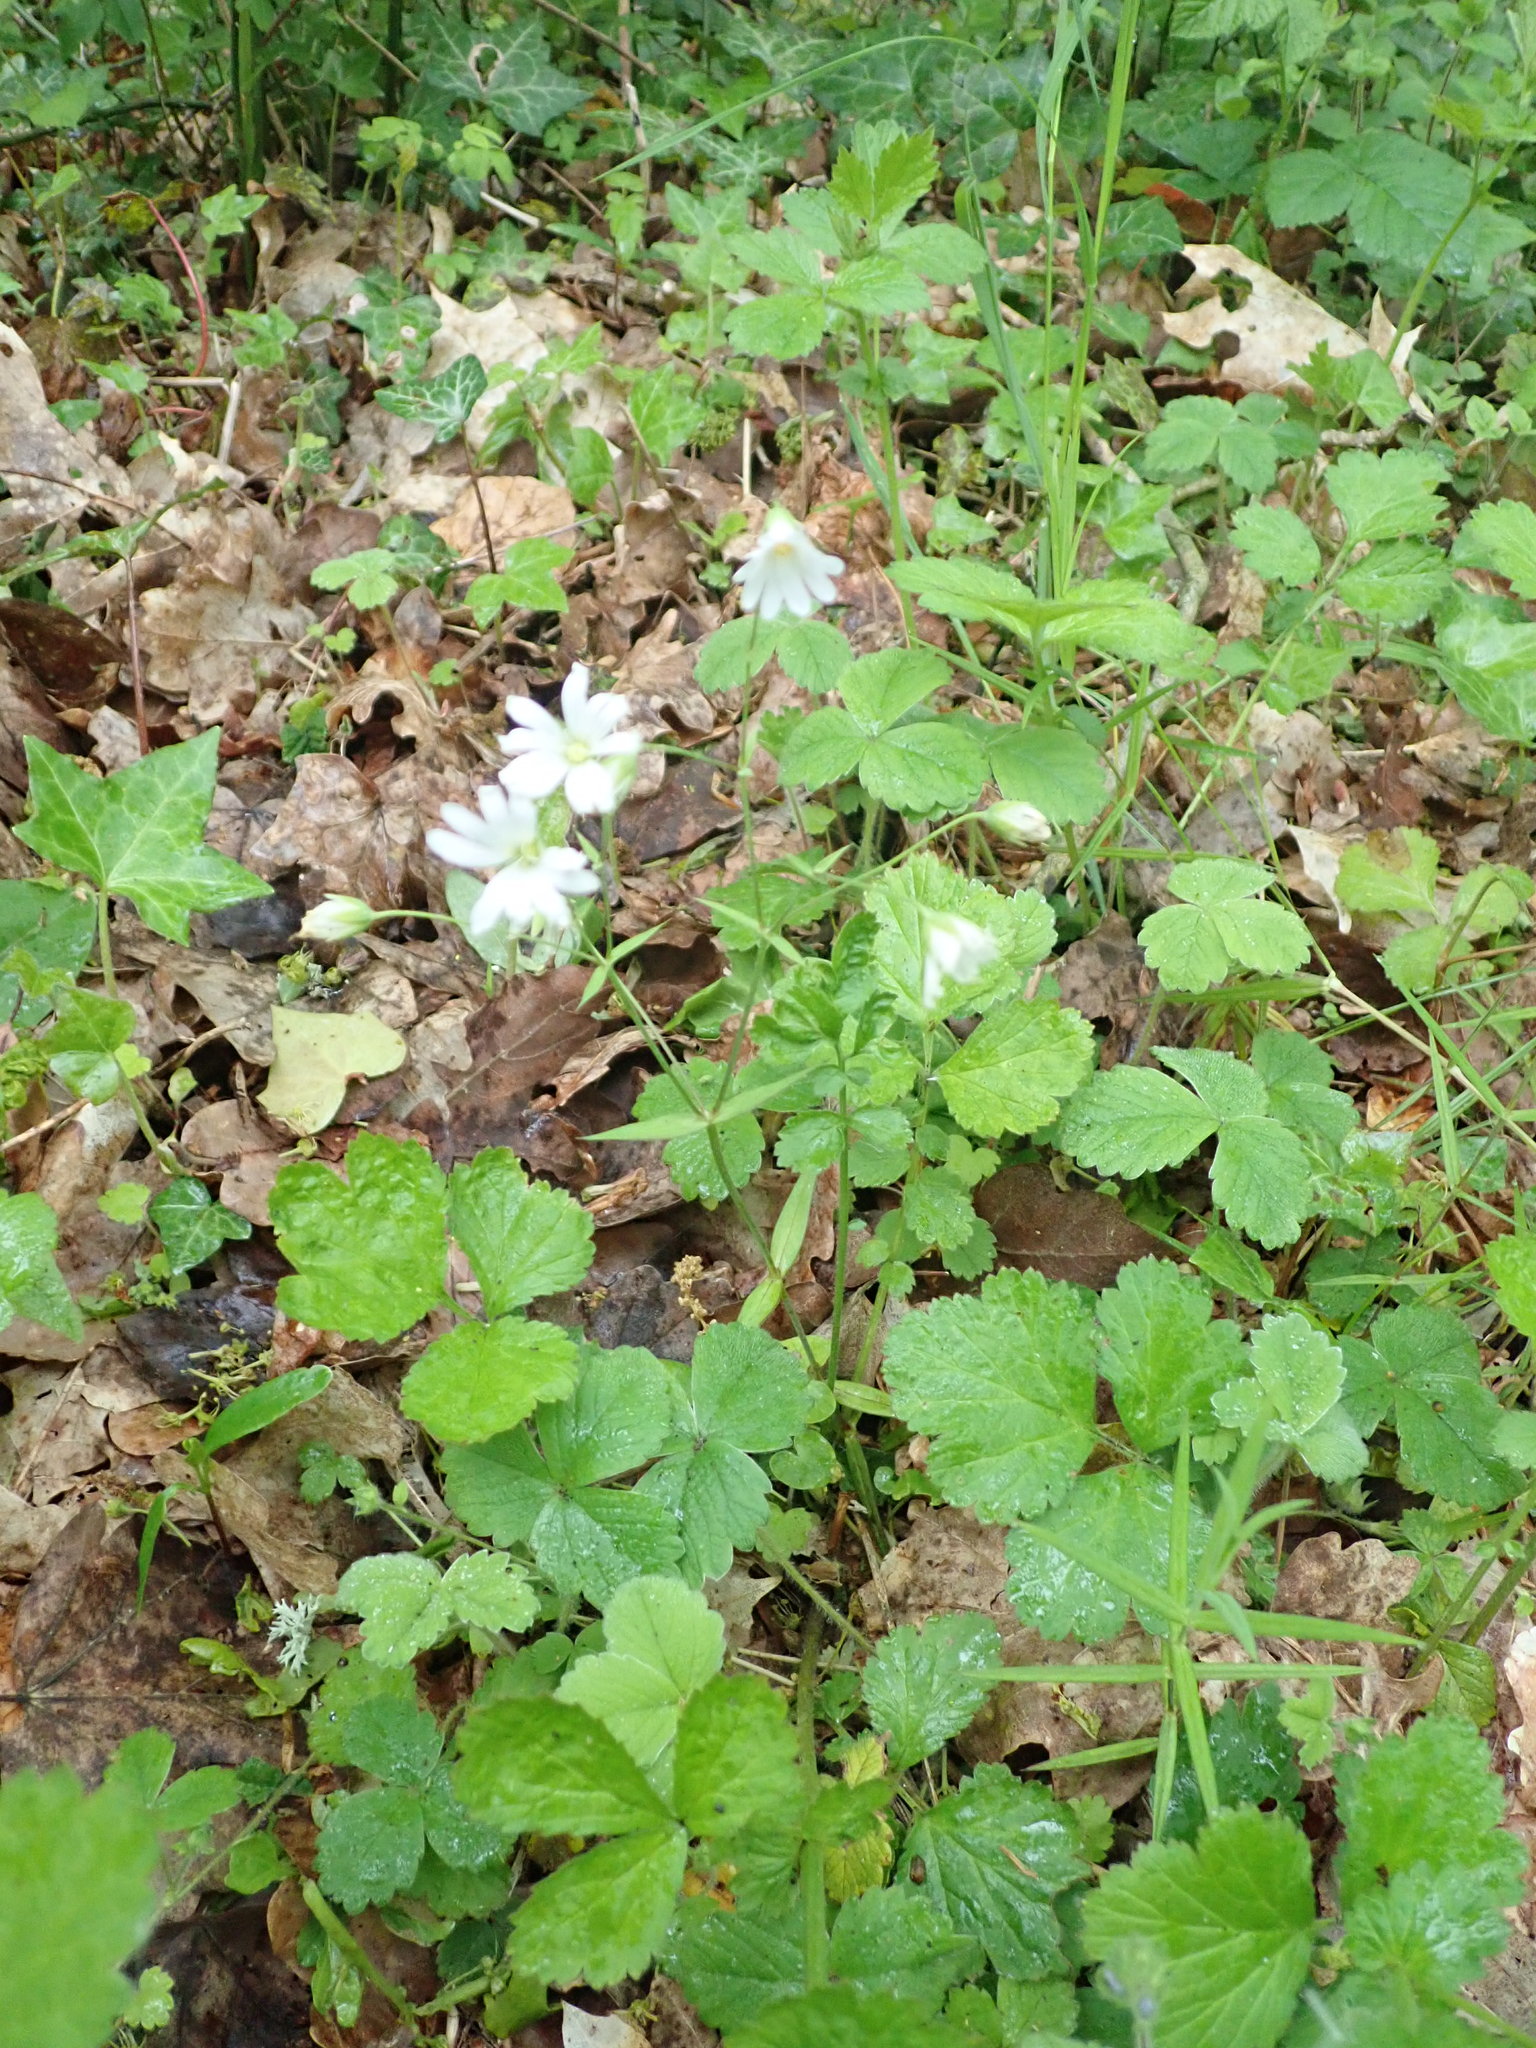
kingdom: Plantae
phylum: Tracheophyta
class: Magnoliopsida
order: Caryophyllales
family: Caryophyllaceae
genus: Rabelera
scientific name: Rabelera holostea
